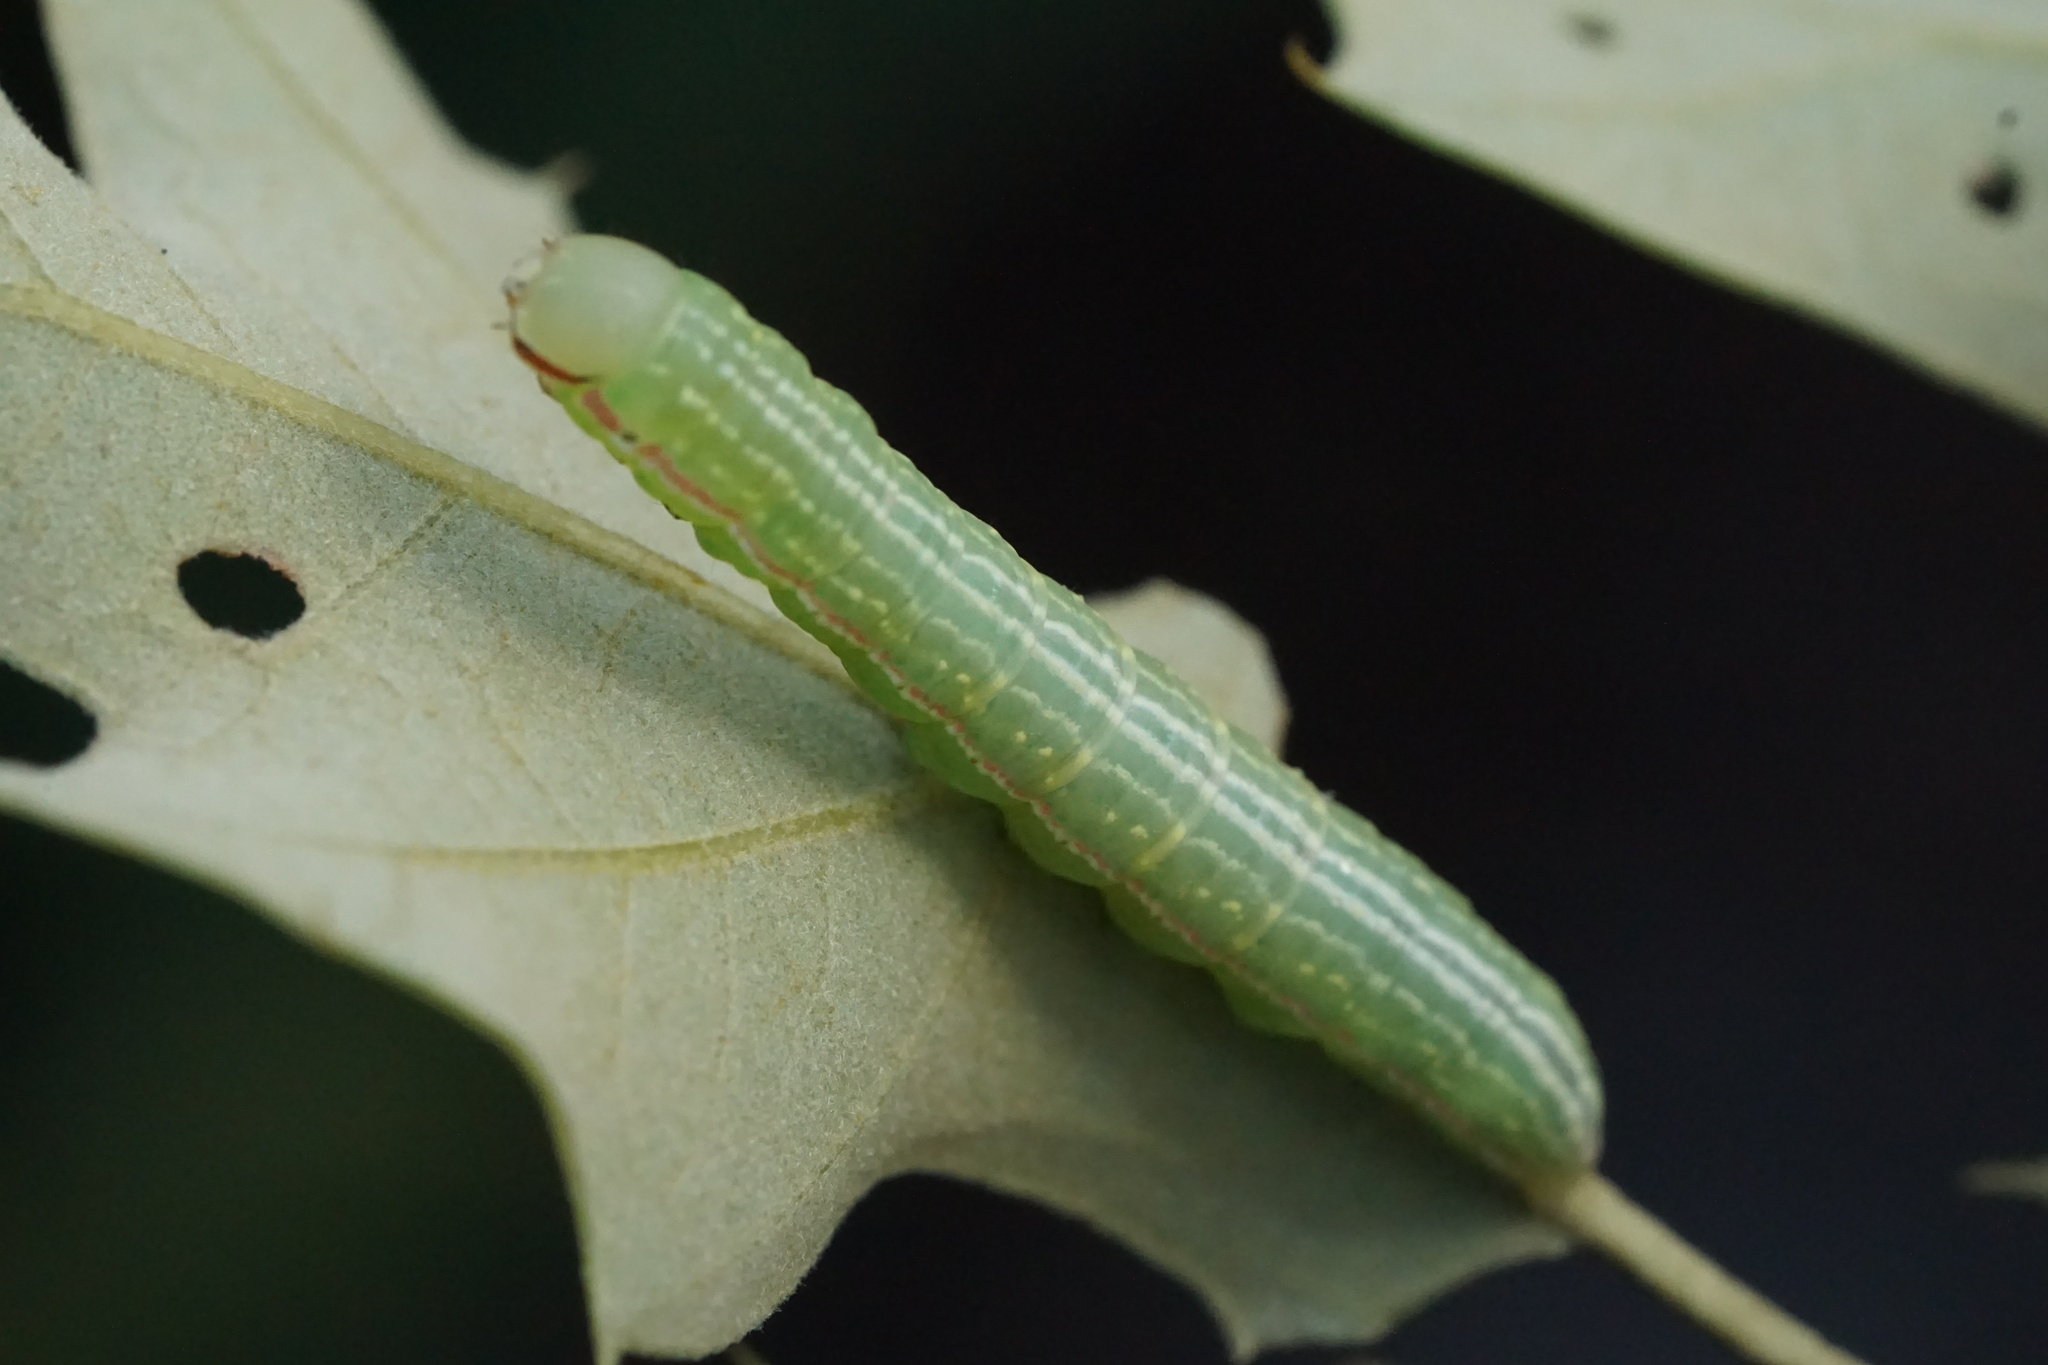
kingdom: Animalia
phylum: Arthropoda
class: Insecta
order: Lepidoptera
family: Notodontidae
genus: Peridea
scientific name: Peridea angulosa
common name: Angulose prominent
